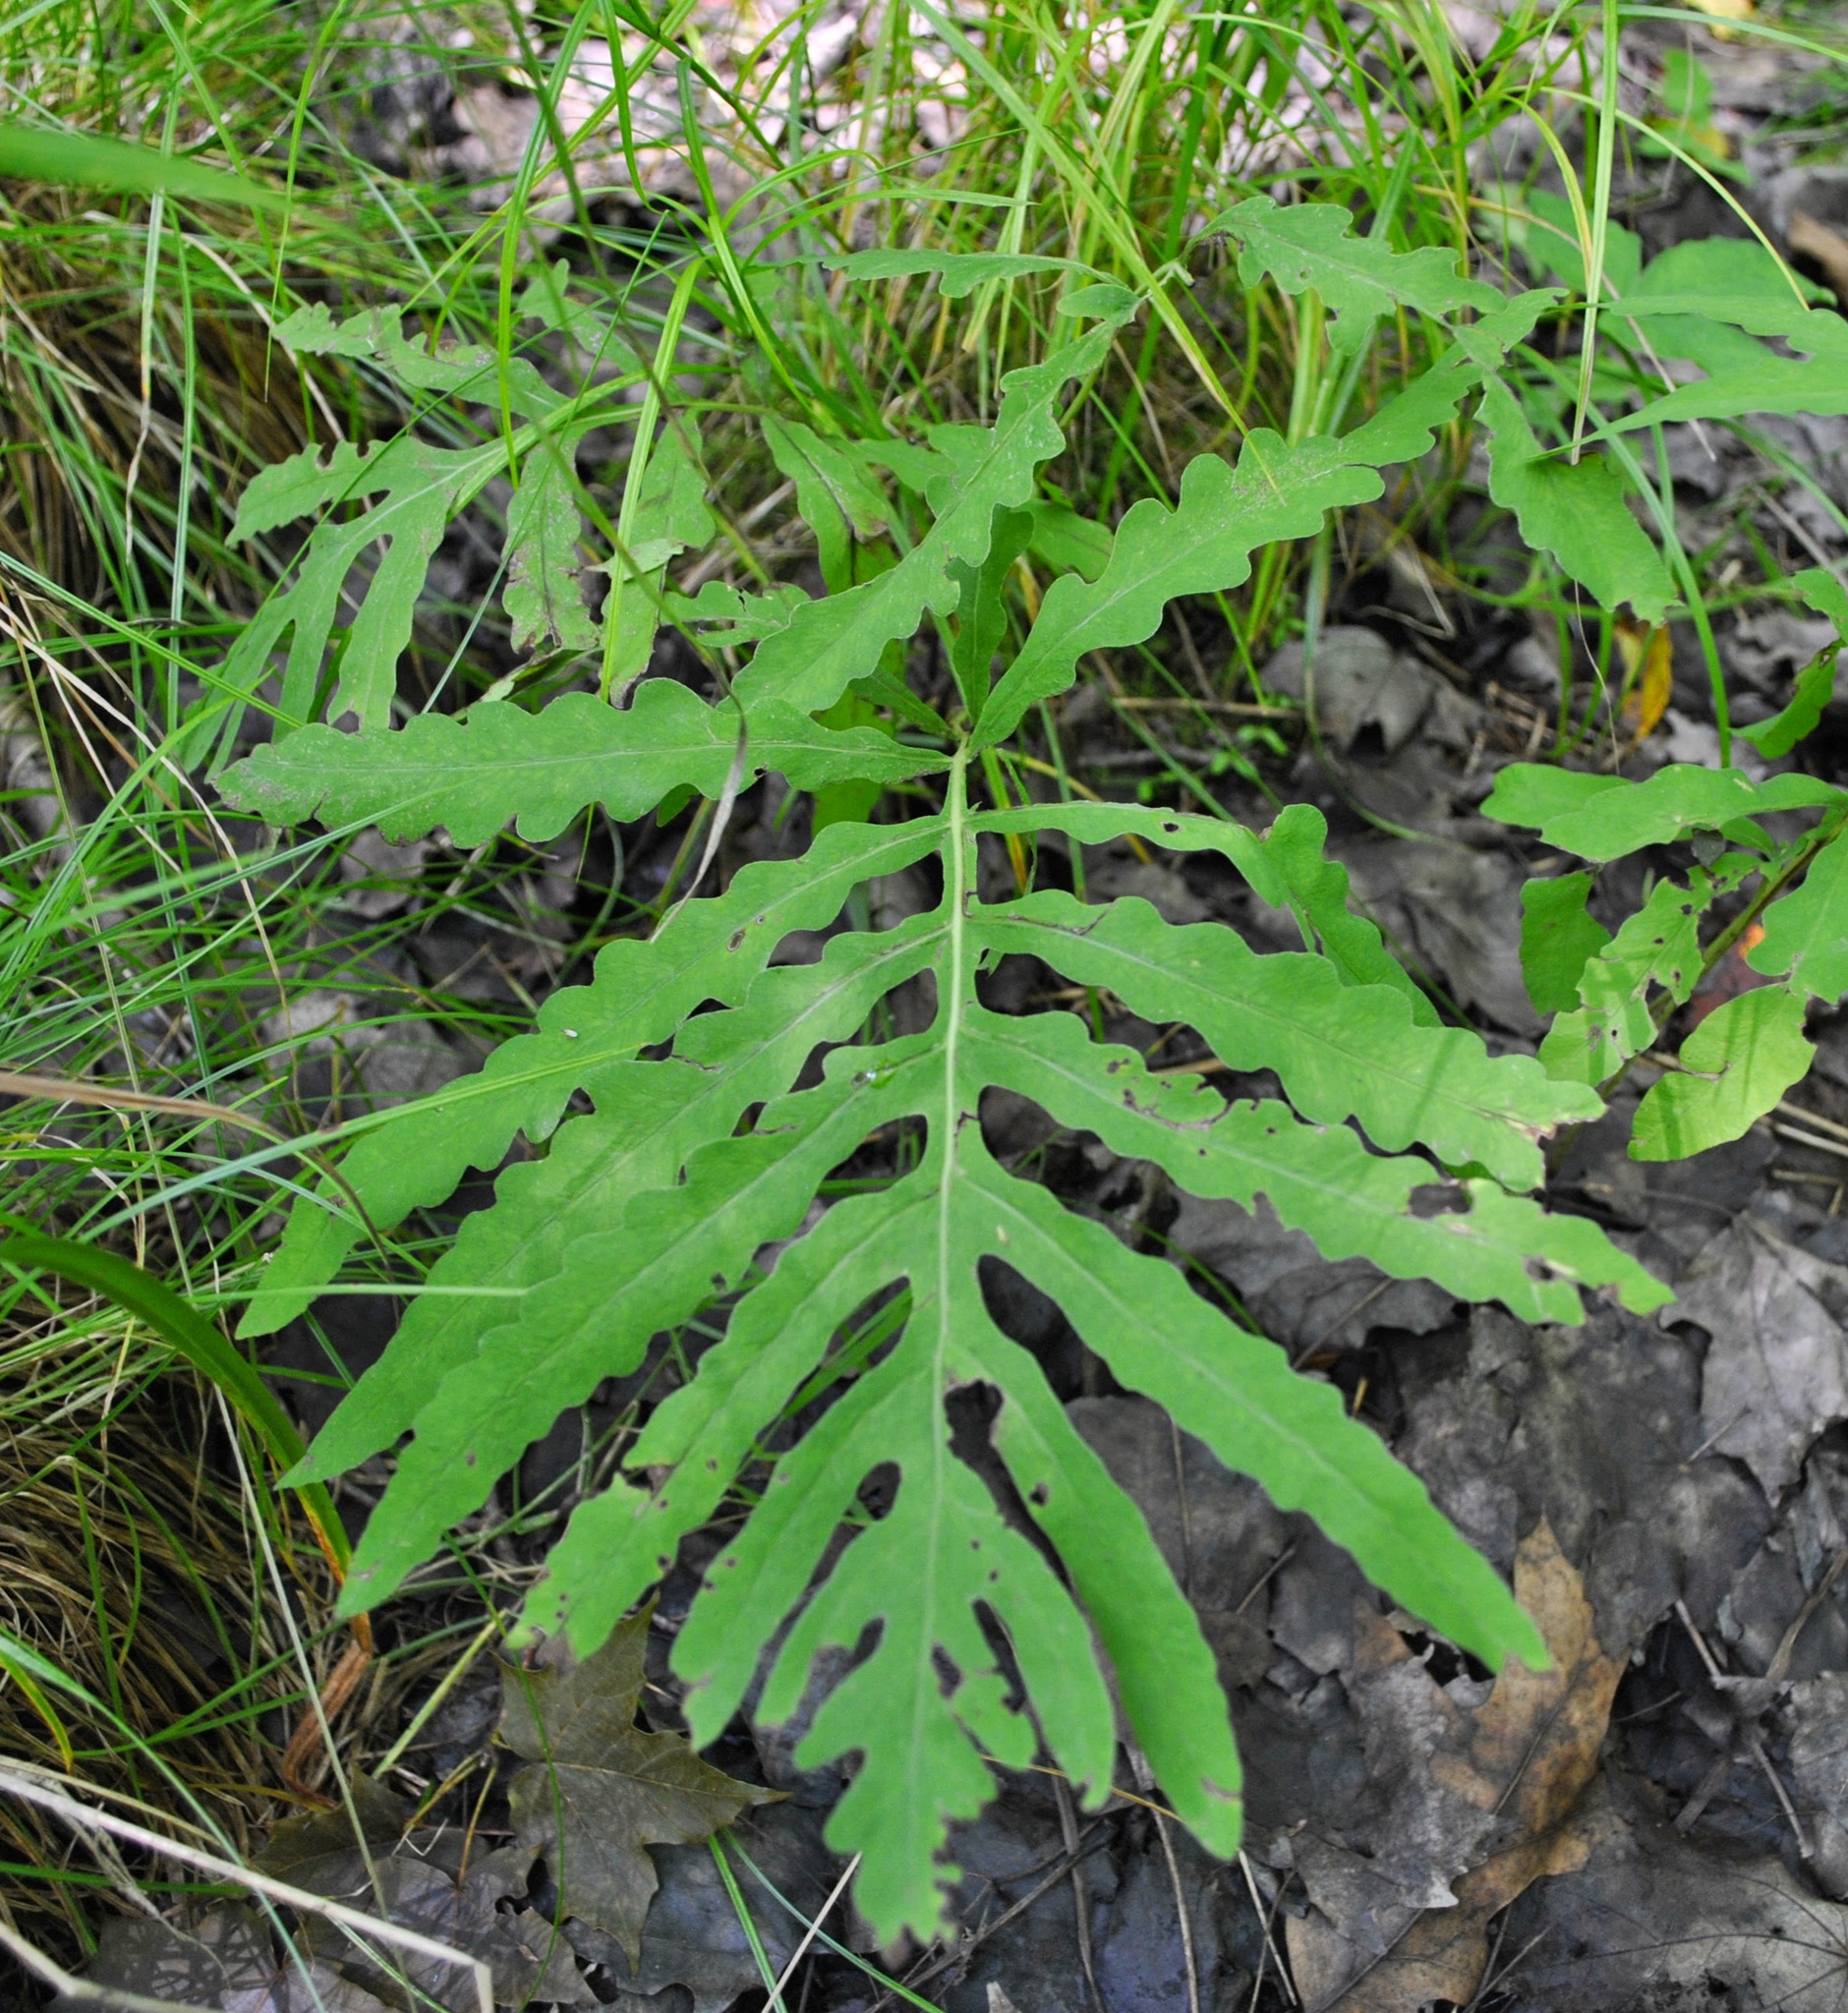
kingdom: Plantae
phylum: Tracheophyta
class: Polypodiopsida
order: Polypodiales
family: Onocleaceae
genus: Onoclea
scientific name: Onoclea sensibilis
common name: Sensitive fern
